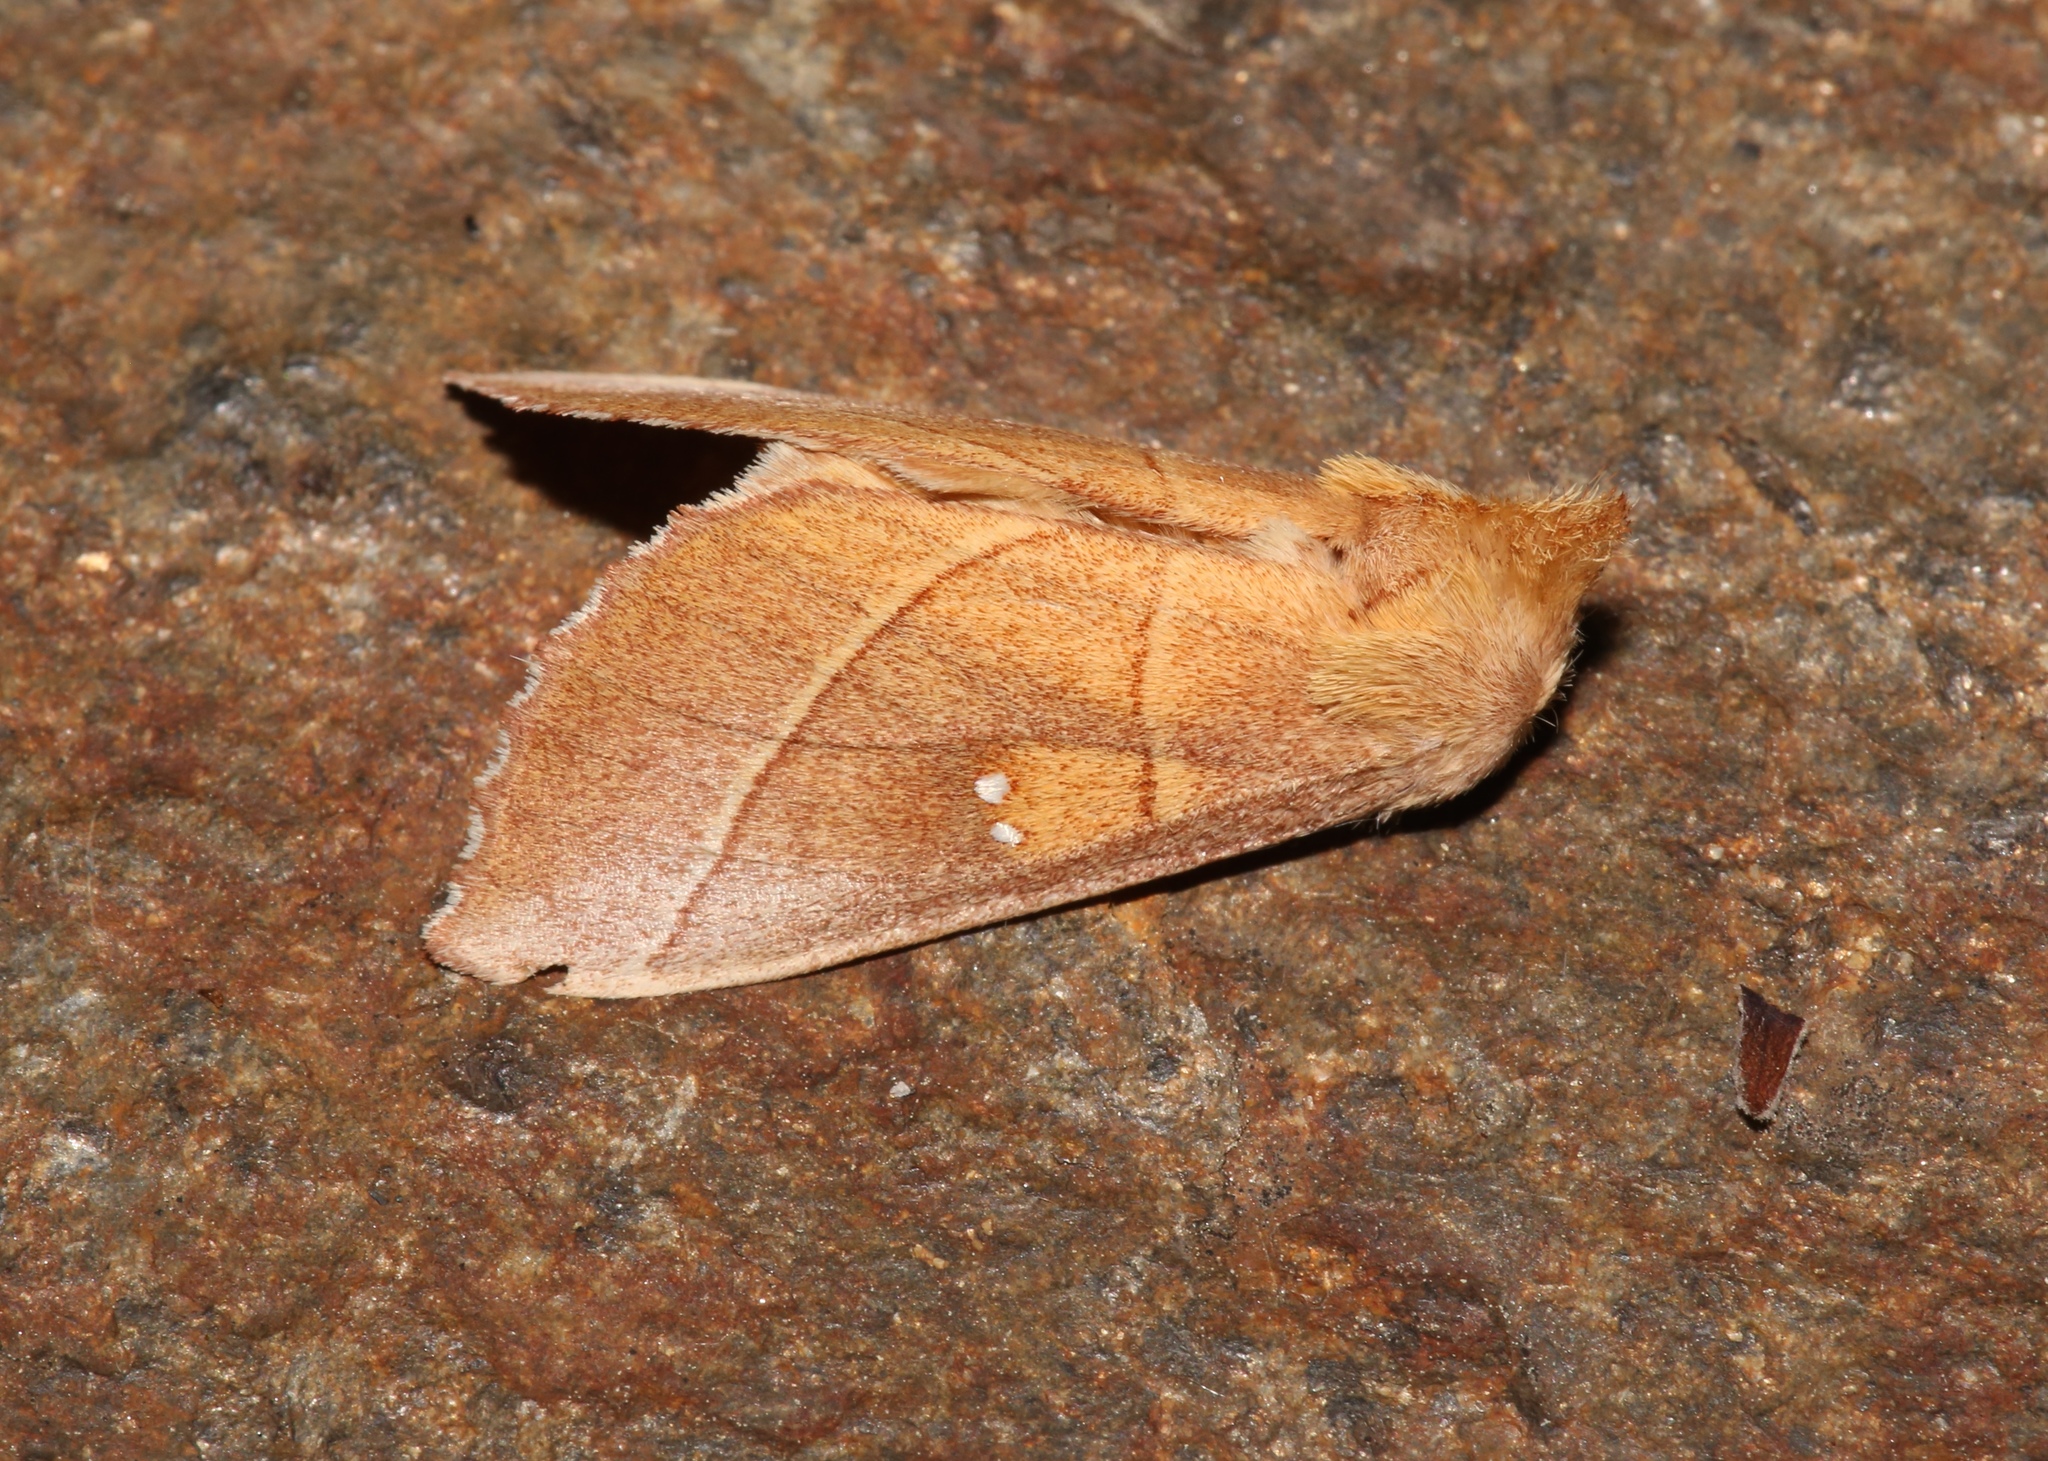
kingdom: Animalia
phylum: Arthropoda
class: Insecta
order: Lepidoptera
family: Notodontidae
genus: Nadata
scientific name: Nadata gibbosa
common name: White-dotted prominent
